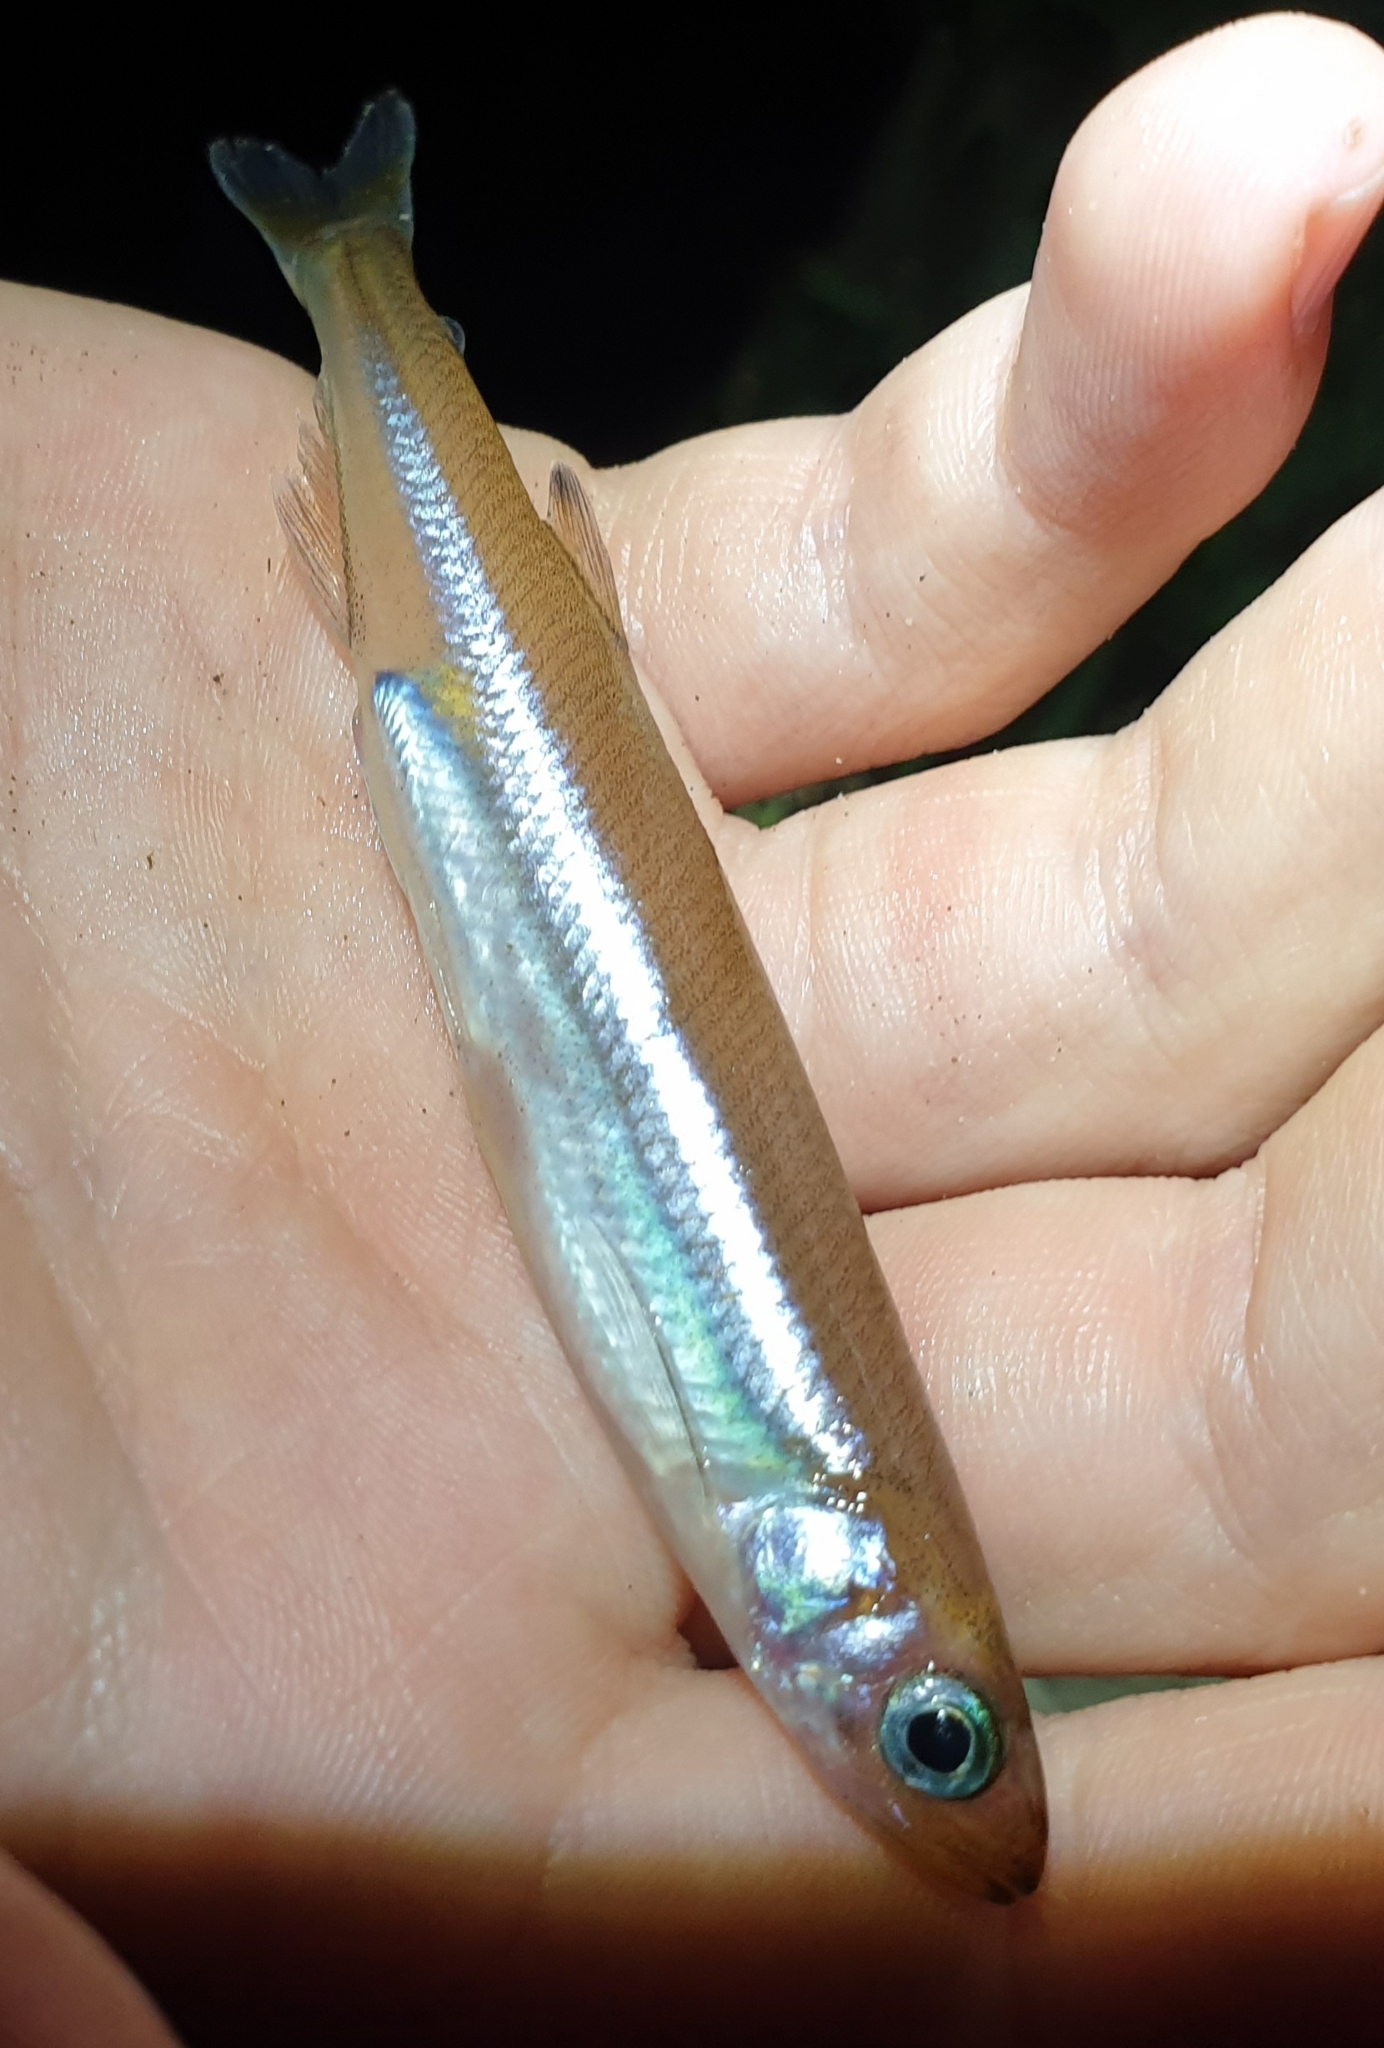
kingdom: Animalia
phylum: Chordata
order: Osmeriformes
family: Retropinnidae
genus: Retropinna
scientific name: Retropinna retropinna
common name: Common smelt
